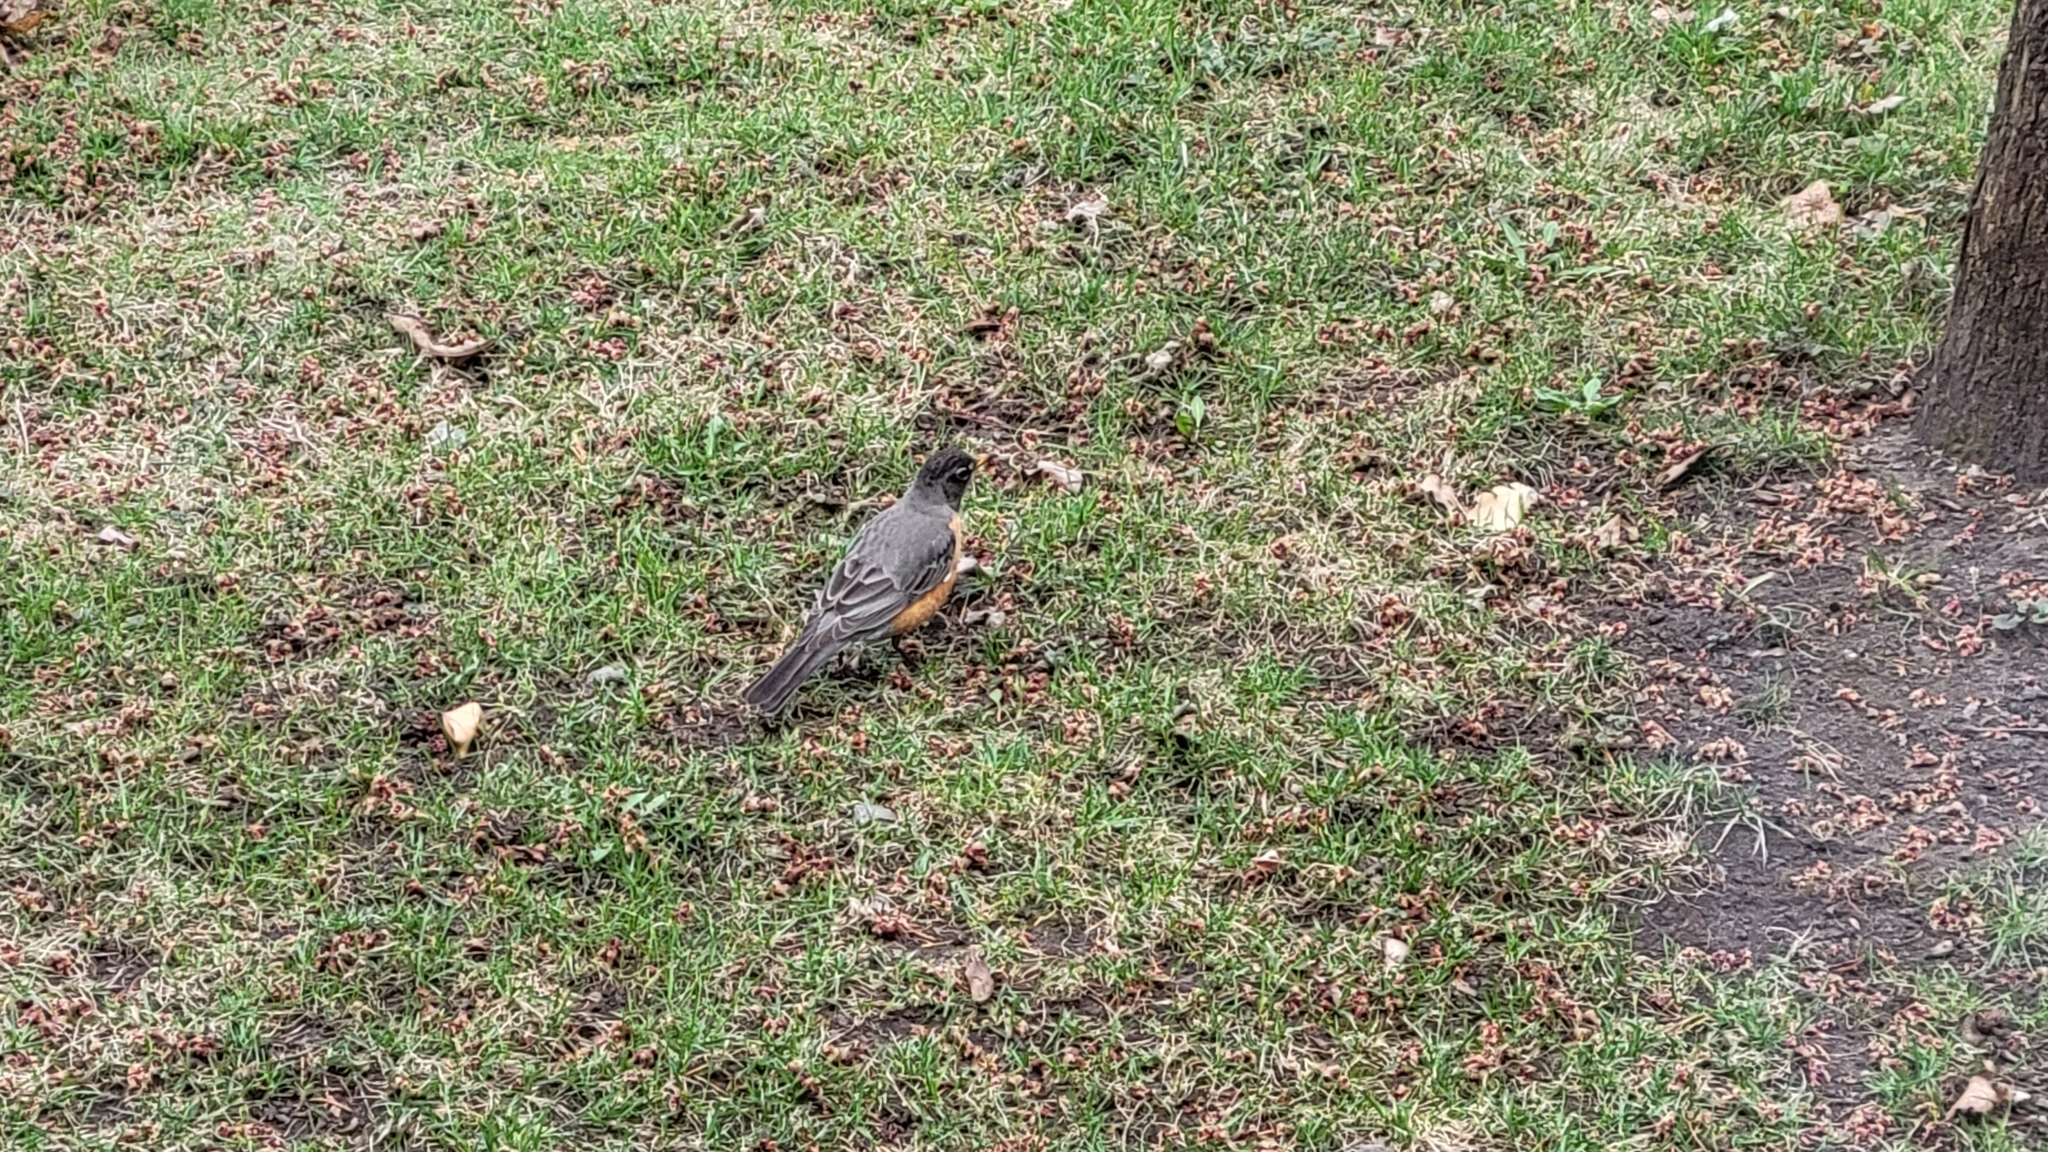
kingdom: Animalia
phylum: Chordata
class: Aves
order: Passeriformes
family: Turdidae
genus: Turdus
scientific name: Turdus migratorius
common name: American robin
